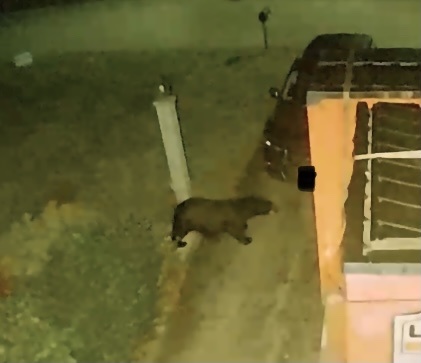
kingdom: Animalia
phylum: Chordata
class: Mammalia
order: Carnivora
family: Ursidae
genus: Ursus
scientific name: Ursus americanus
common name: American black bear
